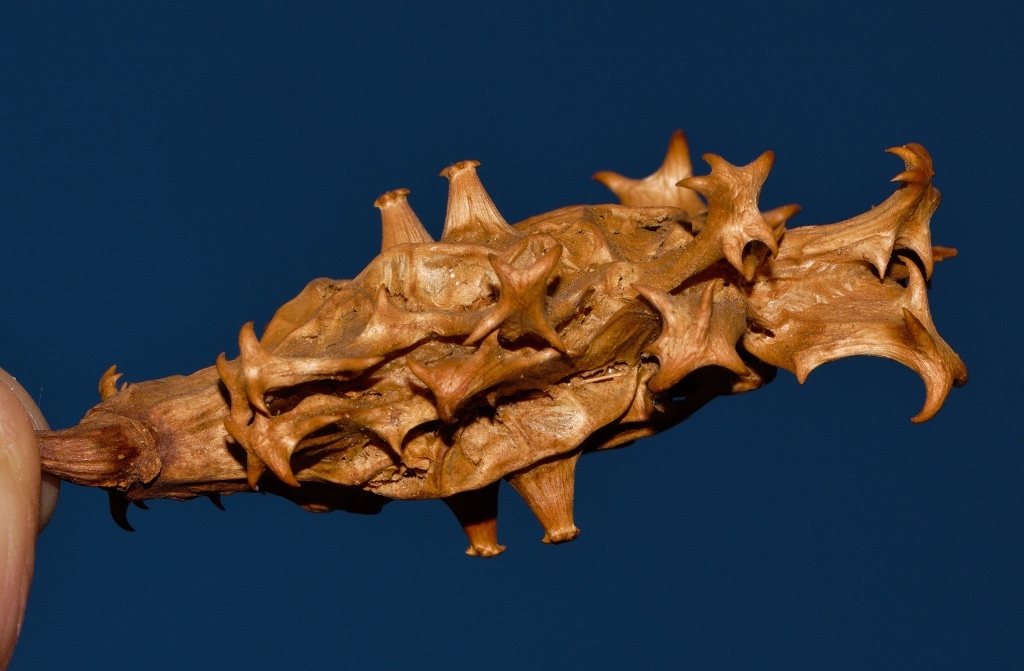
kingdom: Plantae
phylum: Tracheophyta
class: Magnoliopsida
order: Lamiales
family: Pedaliaceae
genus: Harpagophytum
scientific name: Harpagophytum zeyheri
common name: Grappleplant
